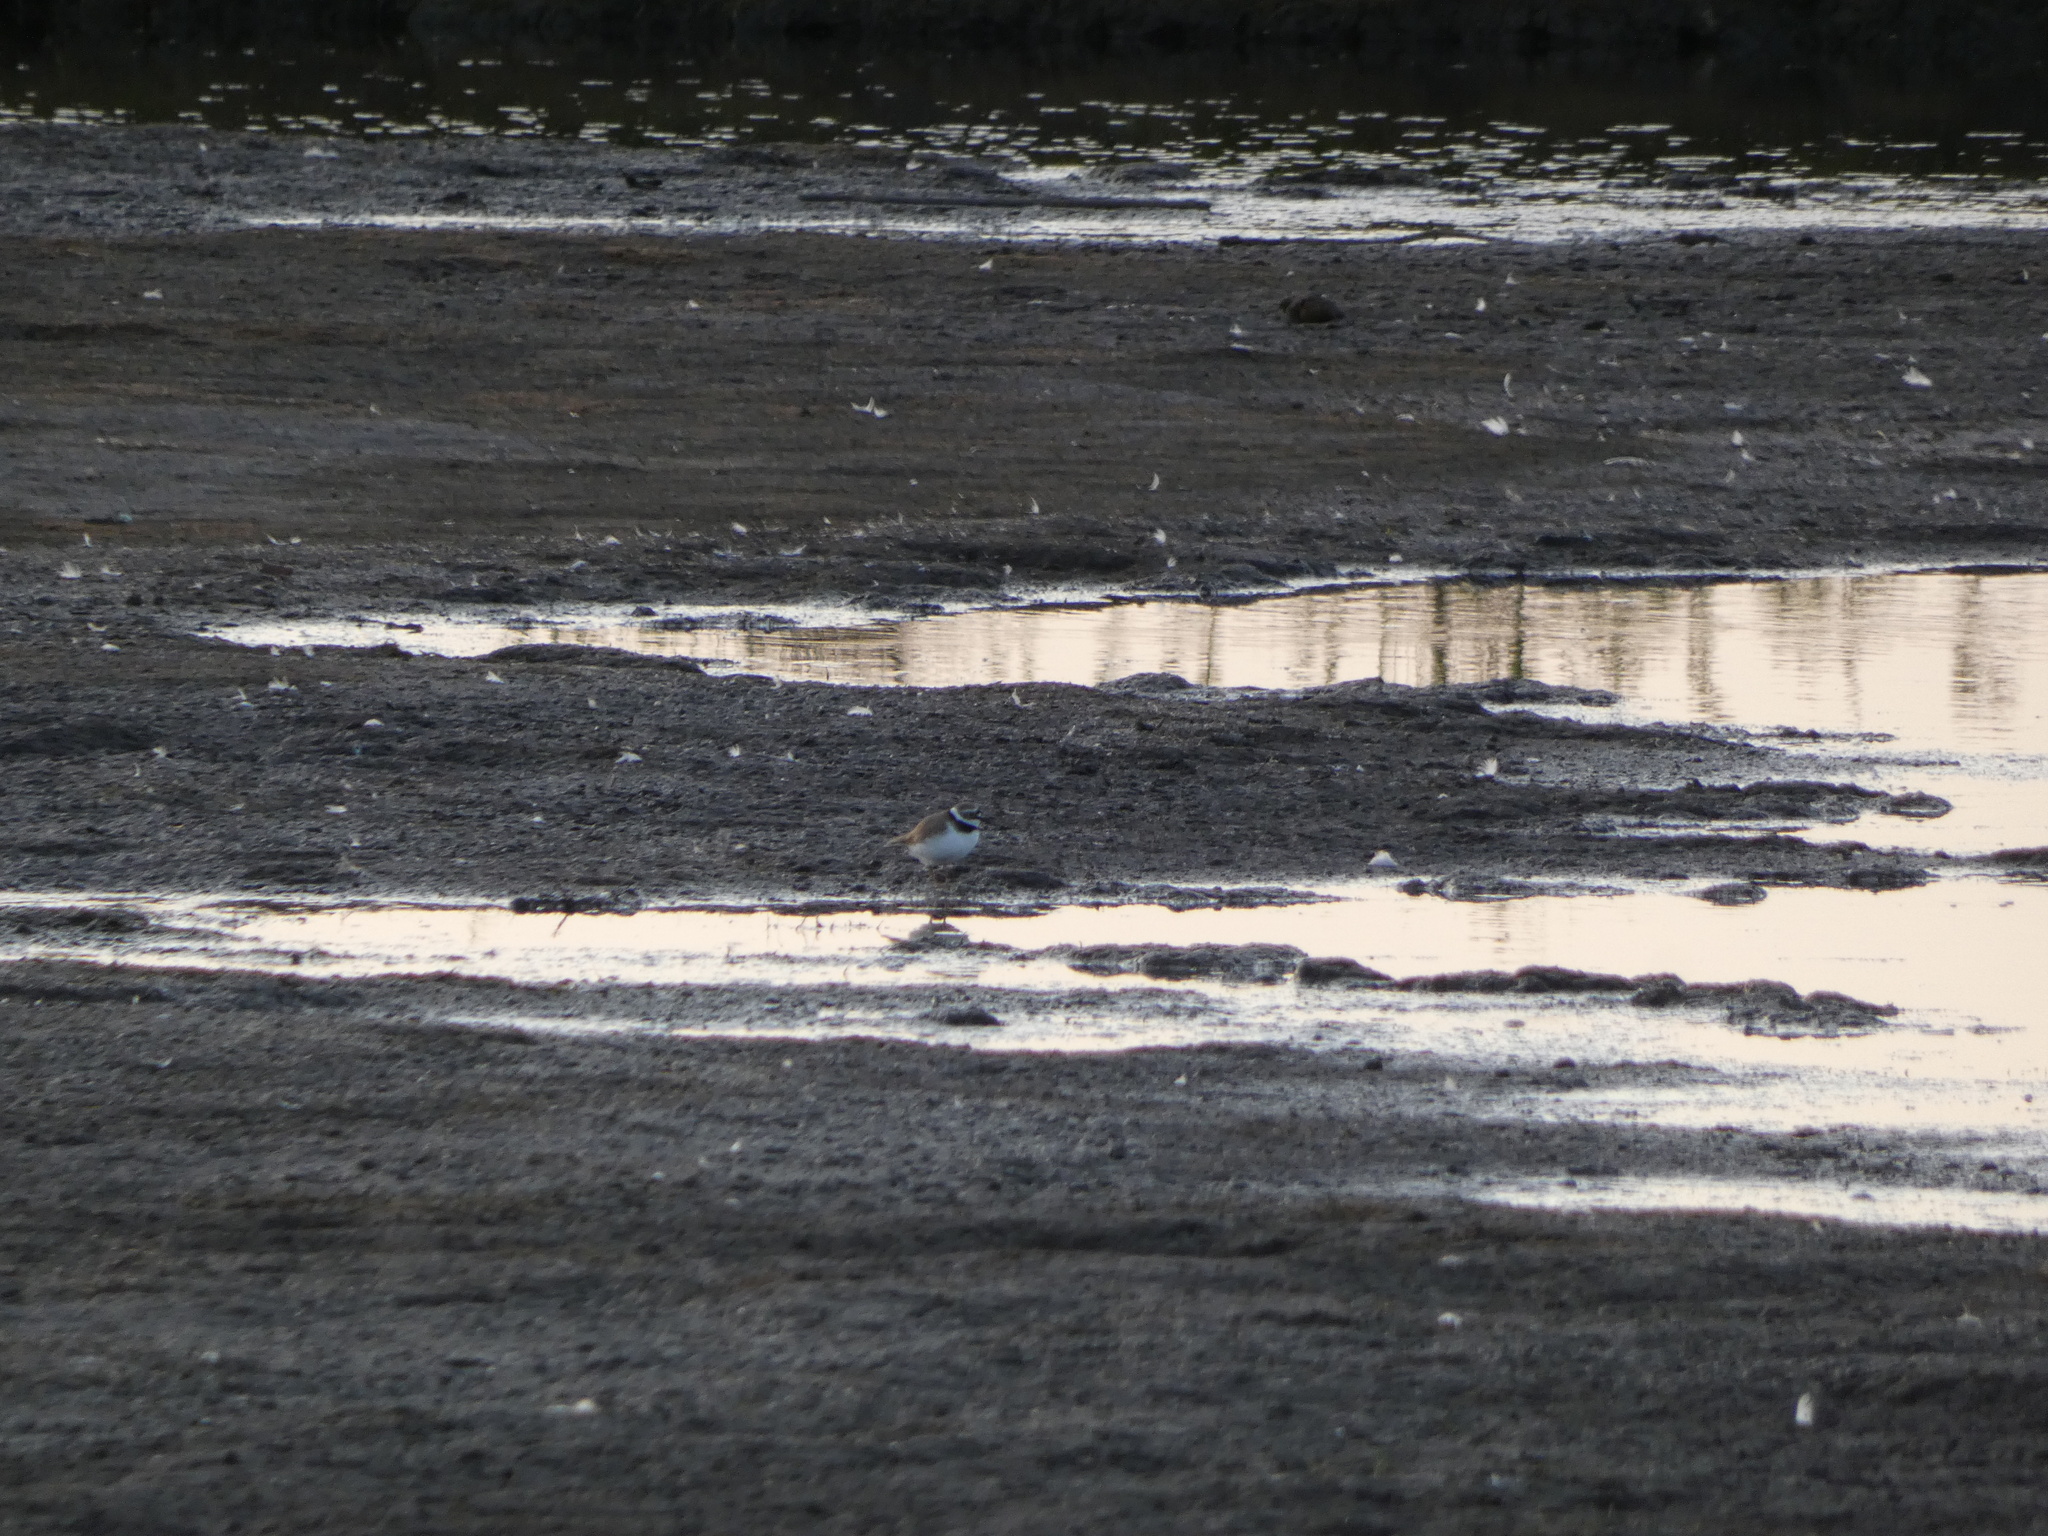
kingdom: Animalia
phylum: Chordata
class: Aves
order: Charadriiformes
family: Charadriidae
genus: Charadrius
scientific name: Charadrius dubius
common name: Little ringed plover
